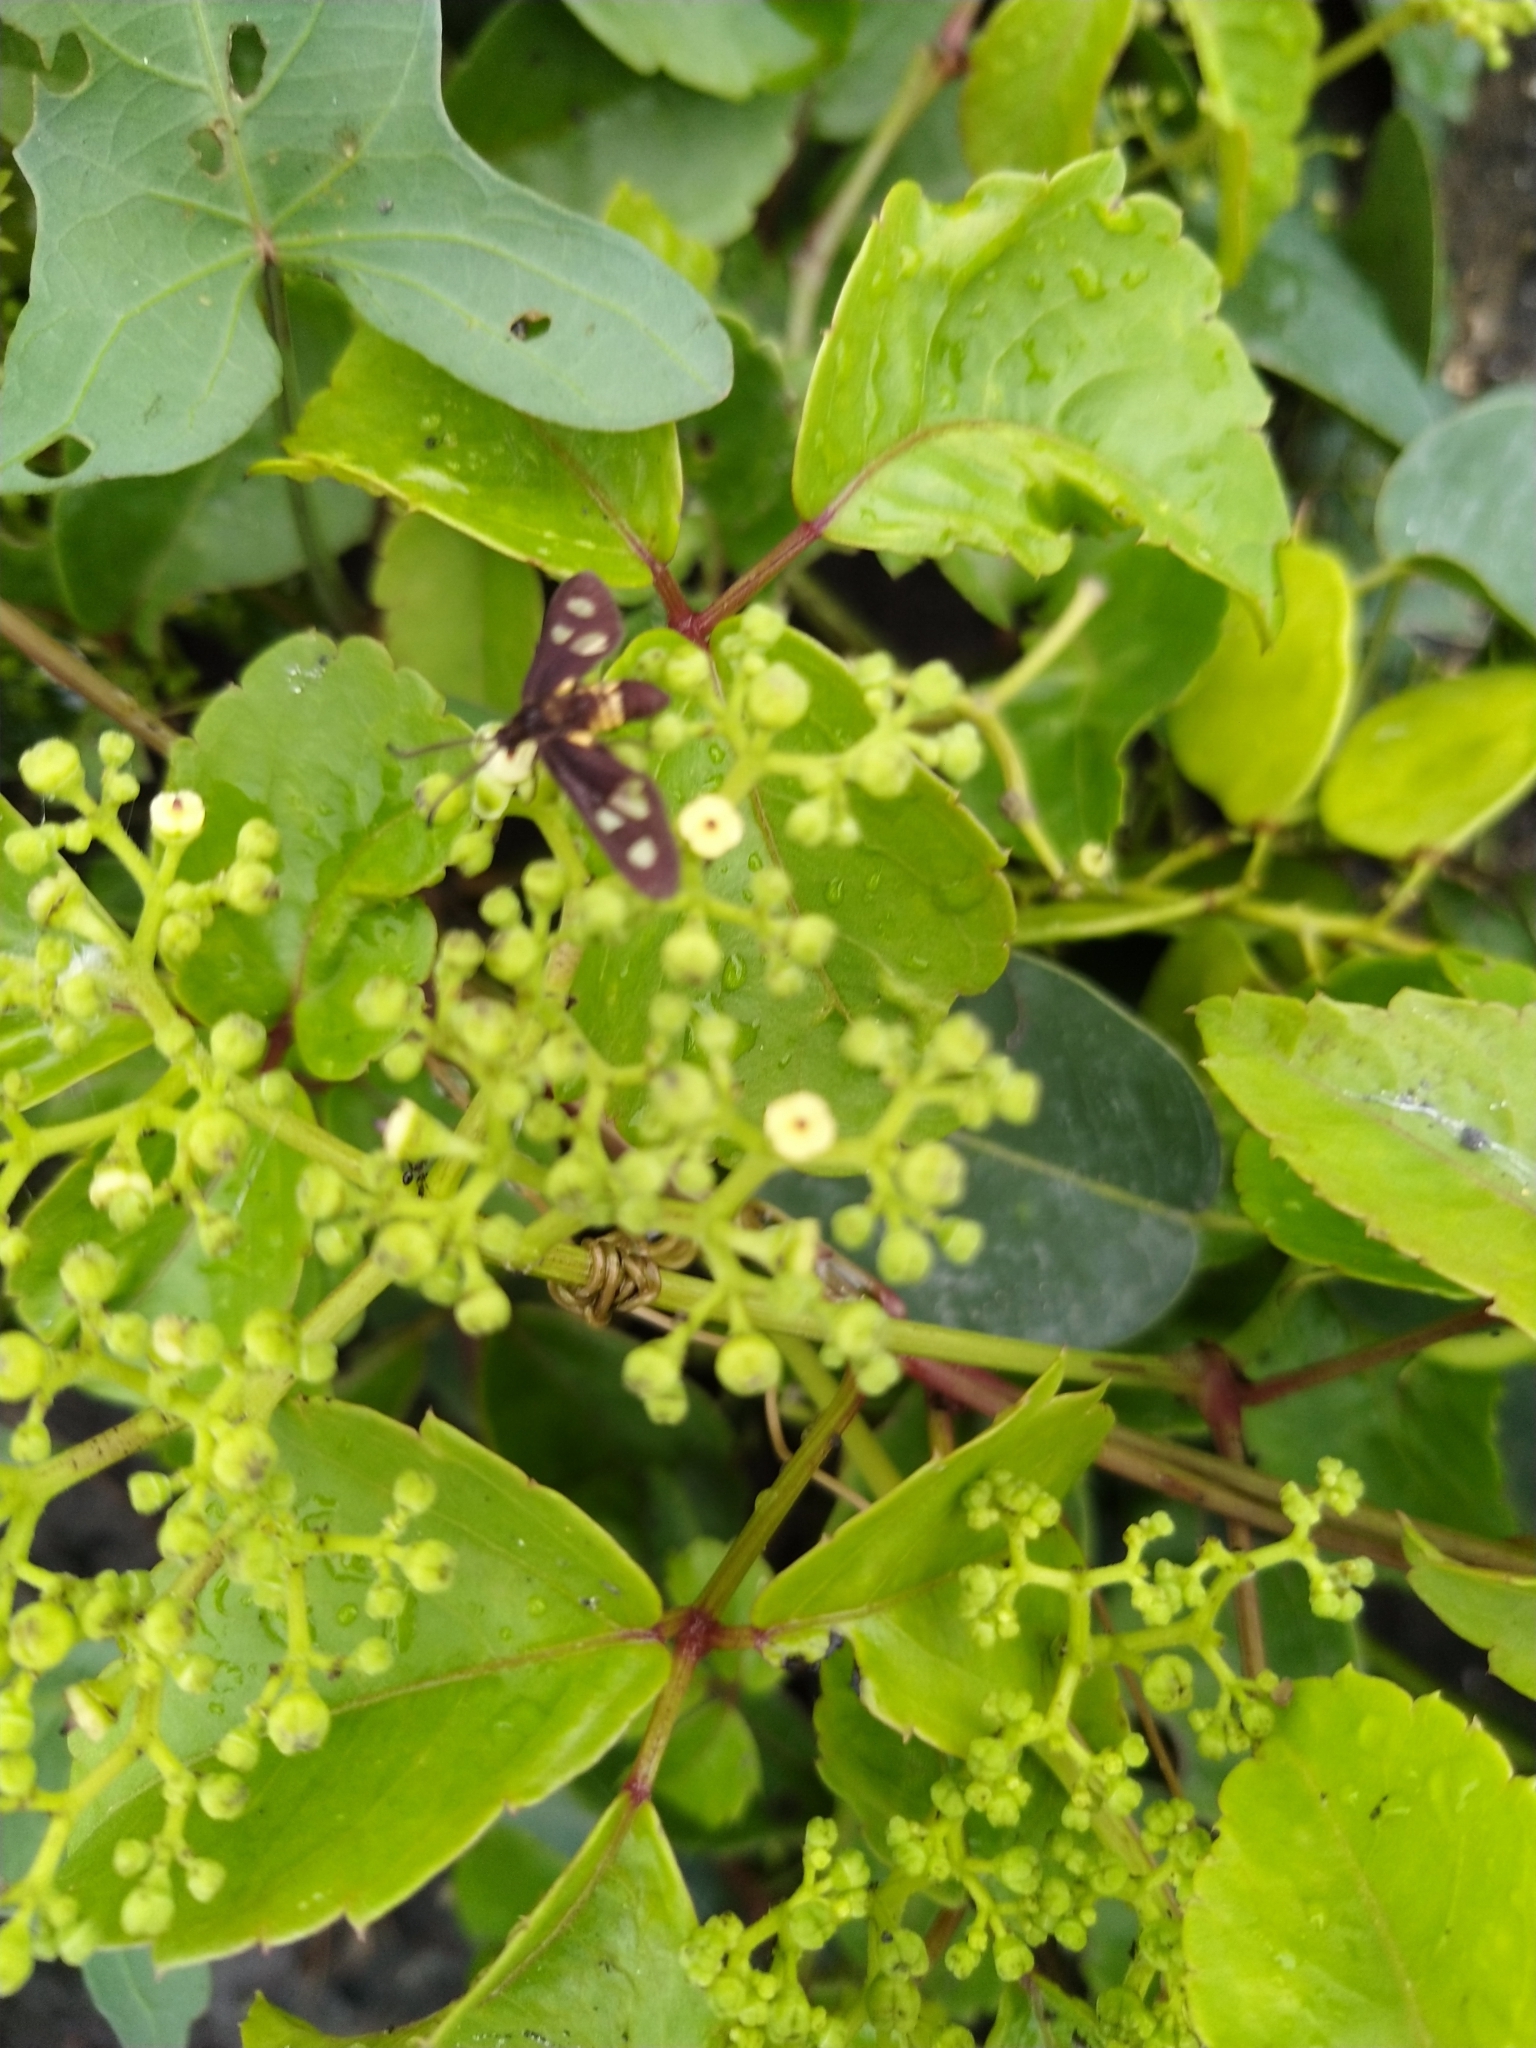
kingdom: Animalia
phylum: Arthropoda
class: Insecta
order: Lepidoptera
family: Erebidae
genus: Amata
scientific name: Amata passalis
